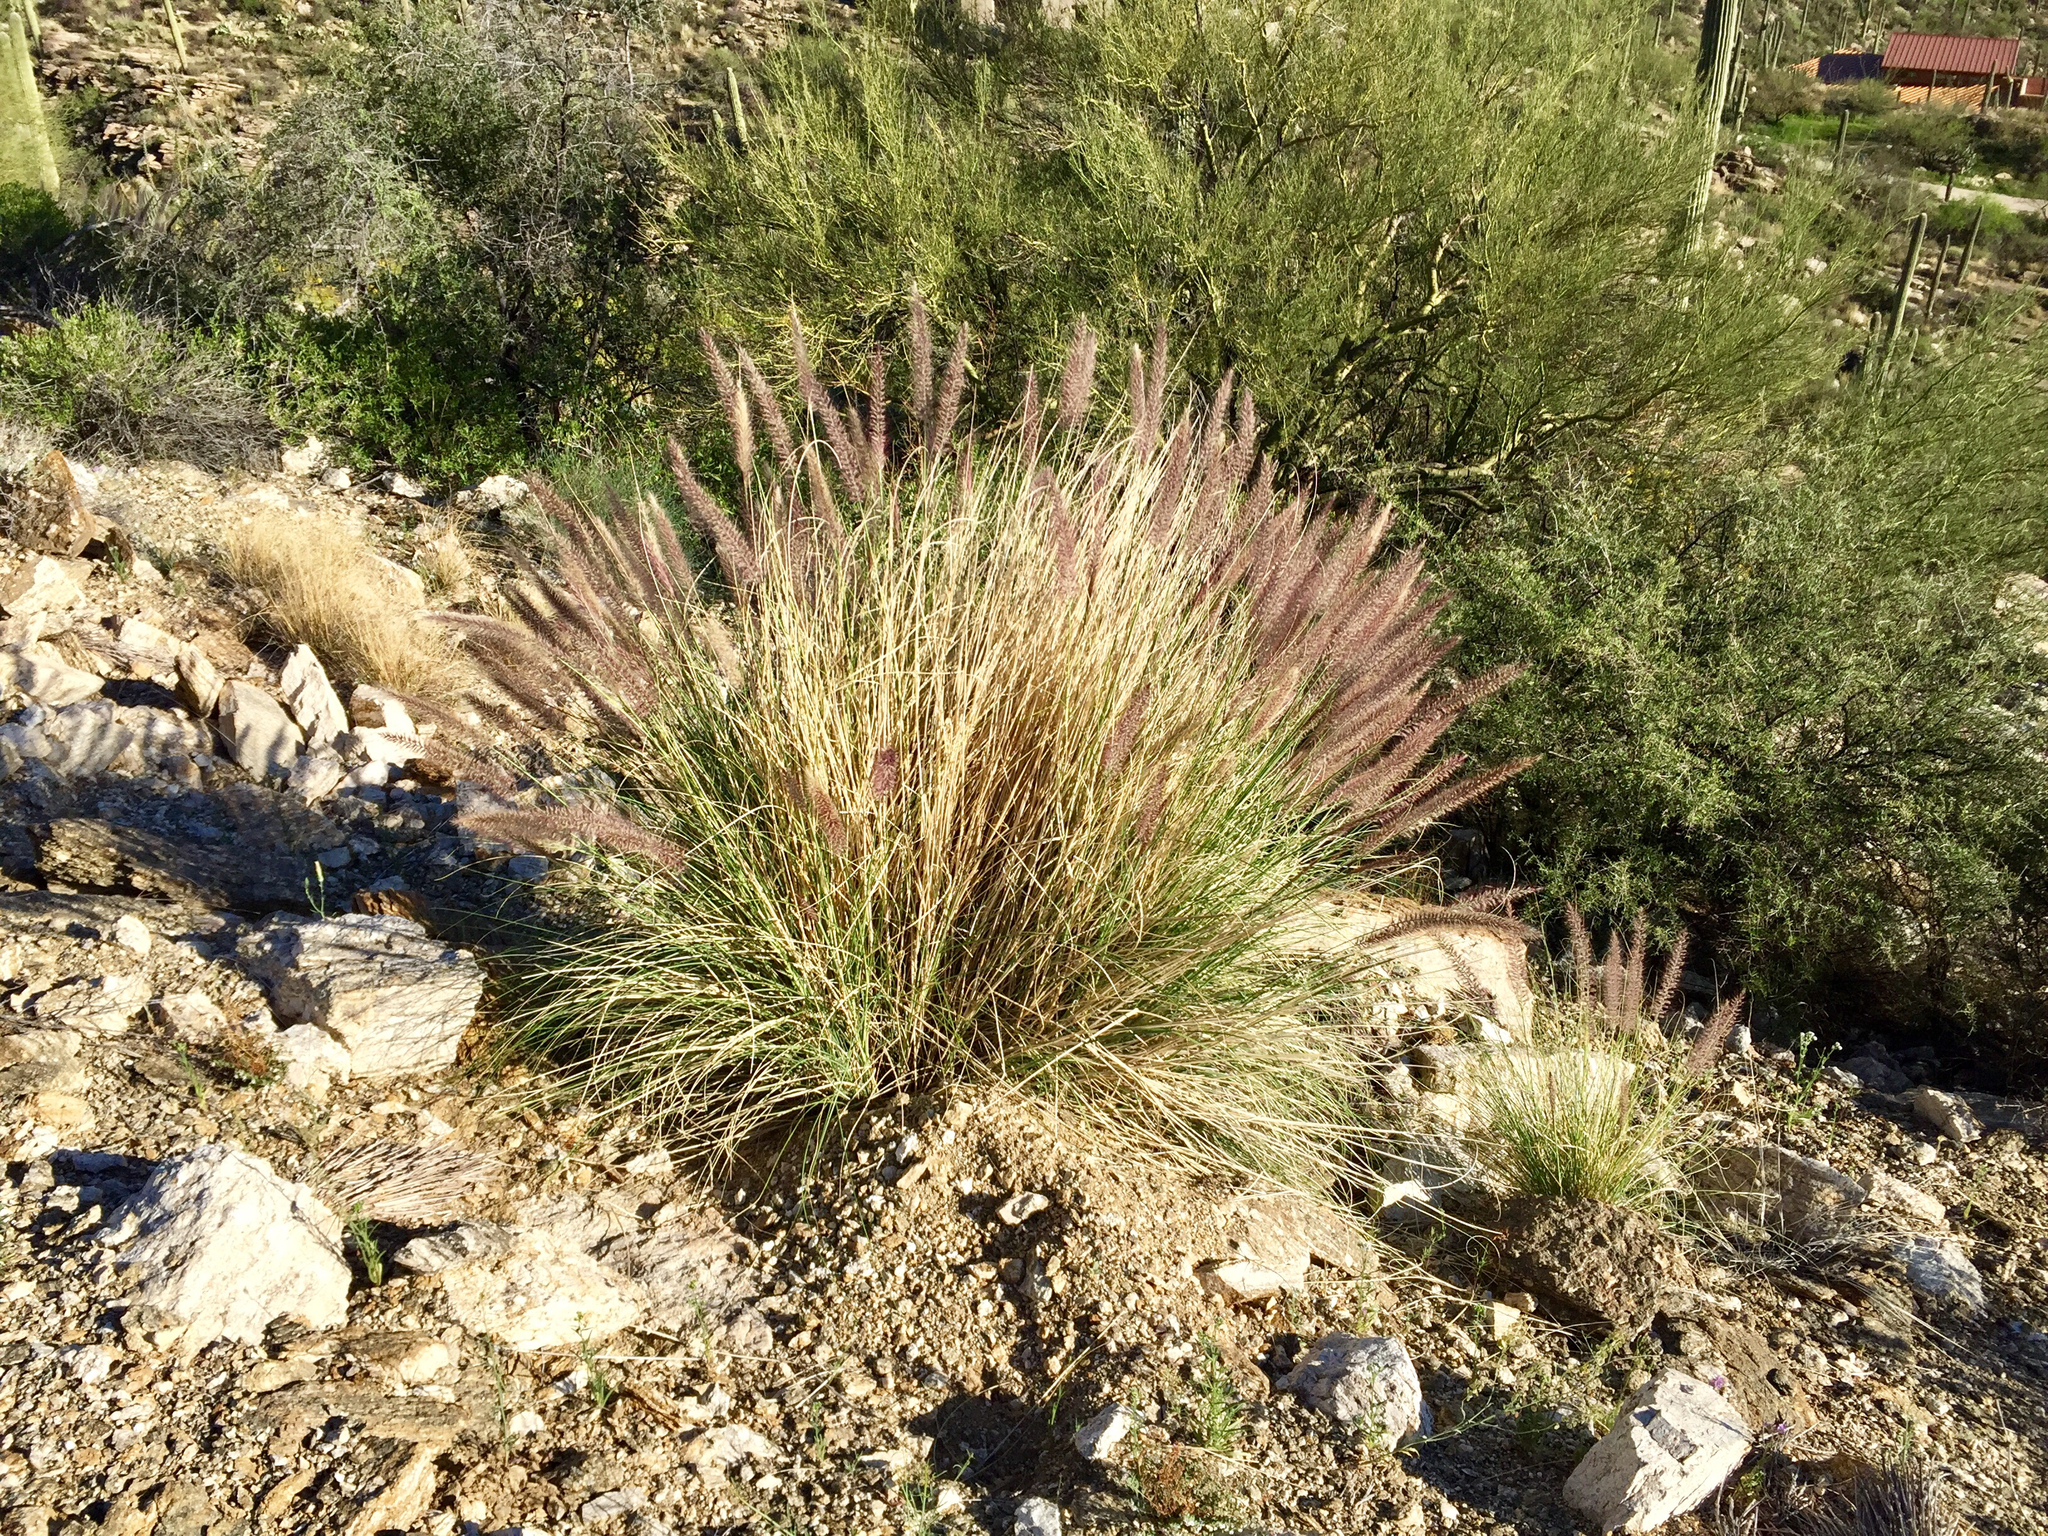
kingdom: Plantae
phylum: Tracheophyta
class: Liliopsida
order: Poales
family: Poaceae
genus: Cenchrus
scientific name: Cenchrus setaceus
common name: Crimson fountaingrass
